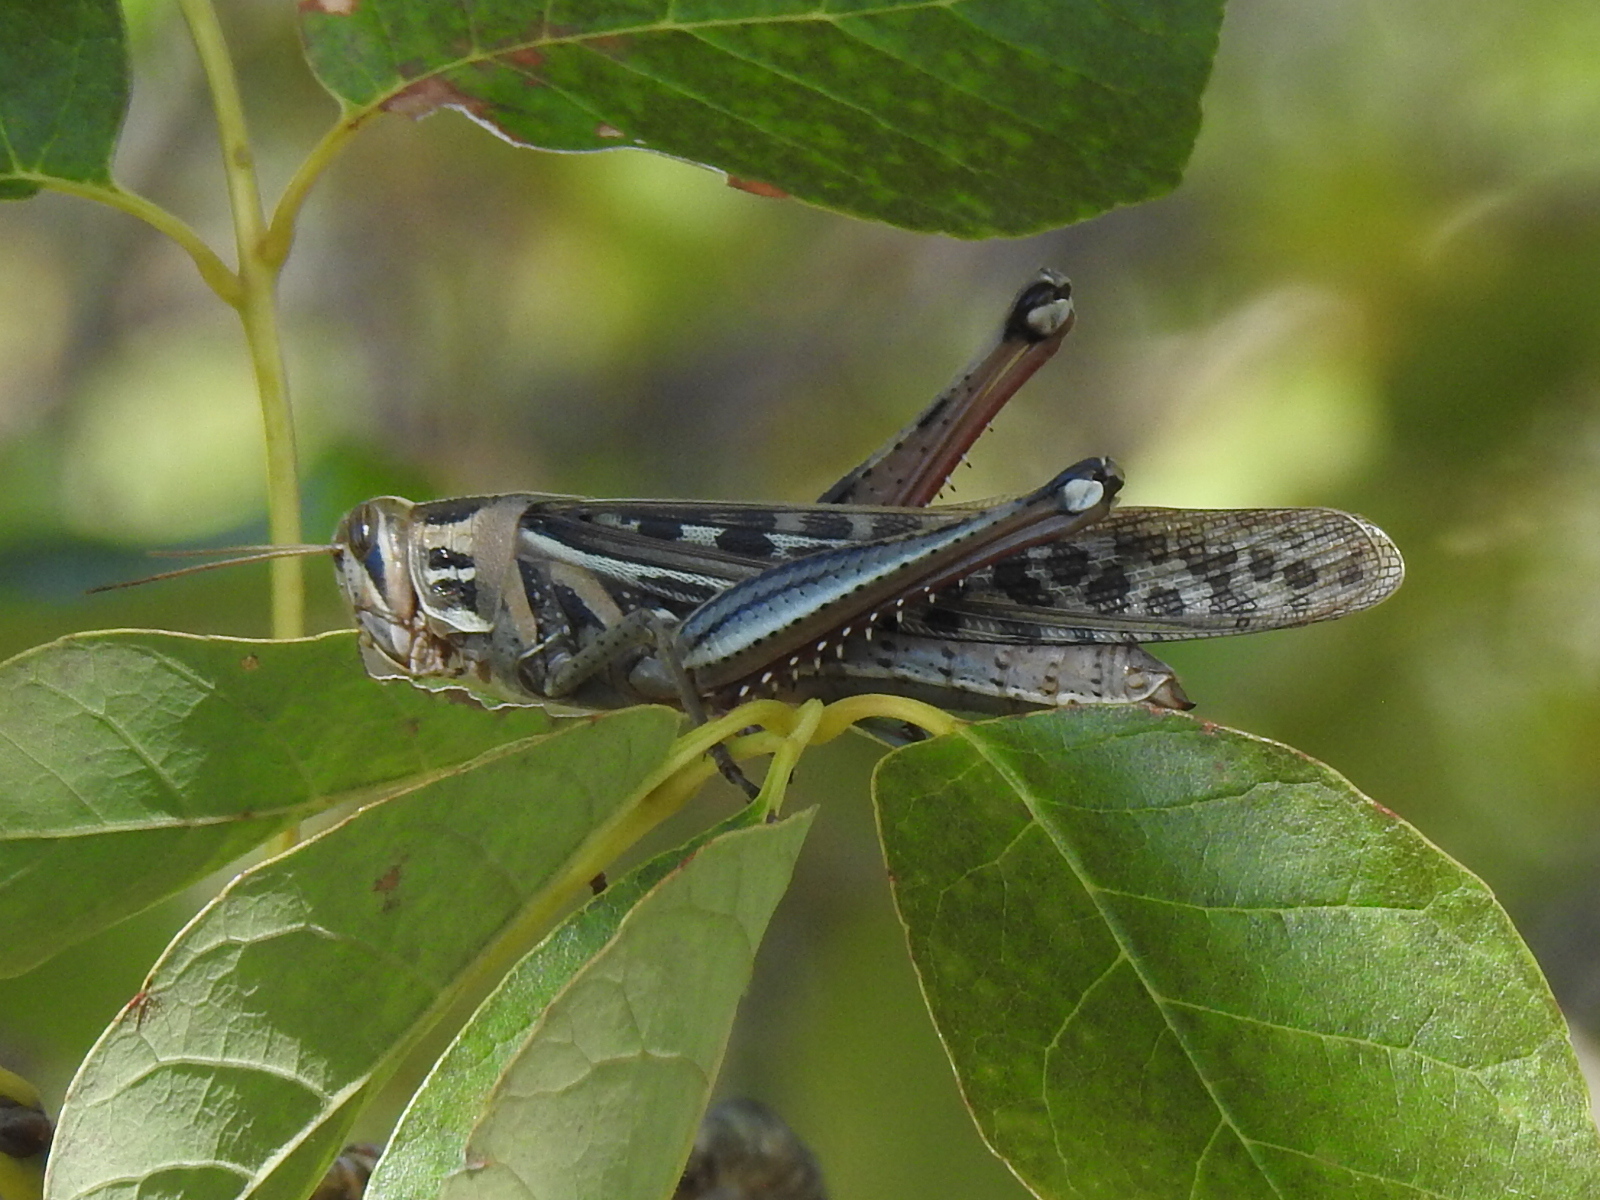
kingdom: Animalia
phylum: Arthropoda
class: Insecta
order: Orthoptera
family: Acrididae
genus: Schistocerca
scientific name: Schistocerca americana
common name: American bird locust
